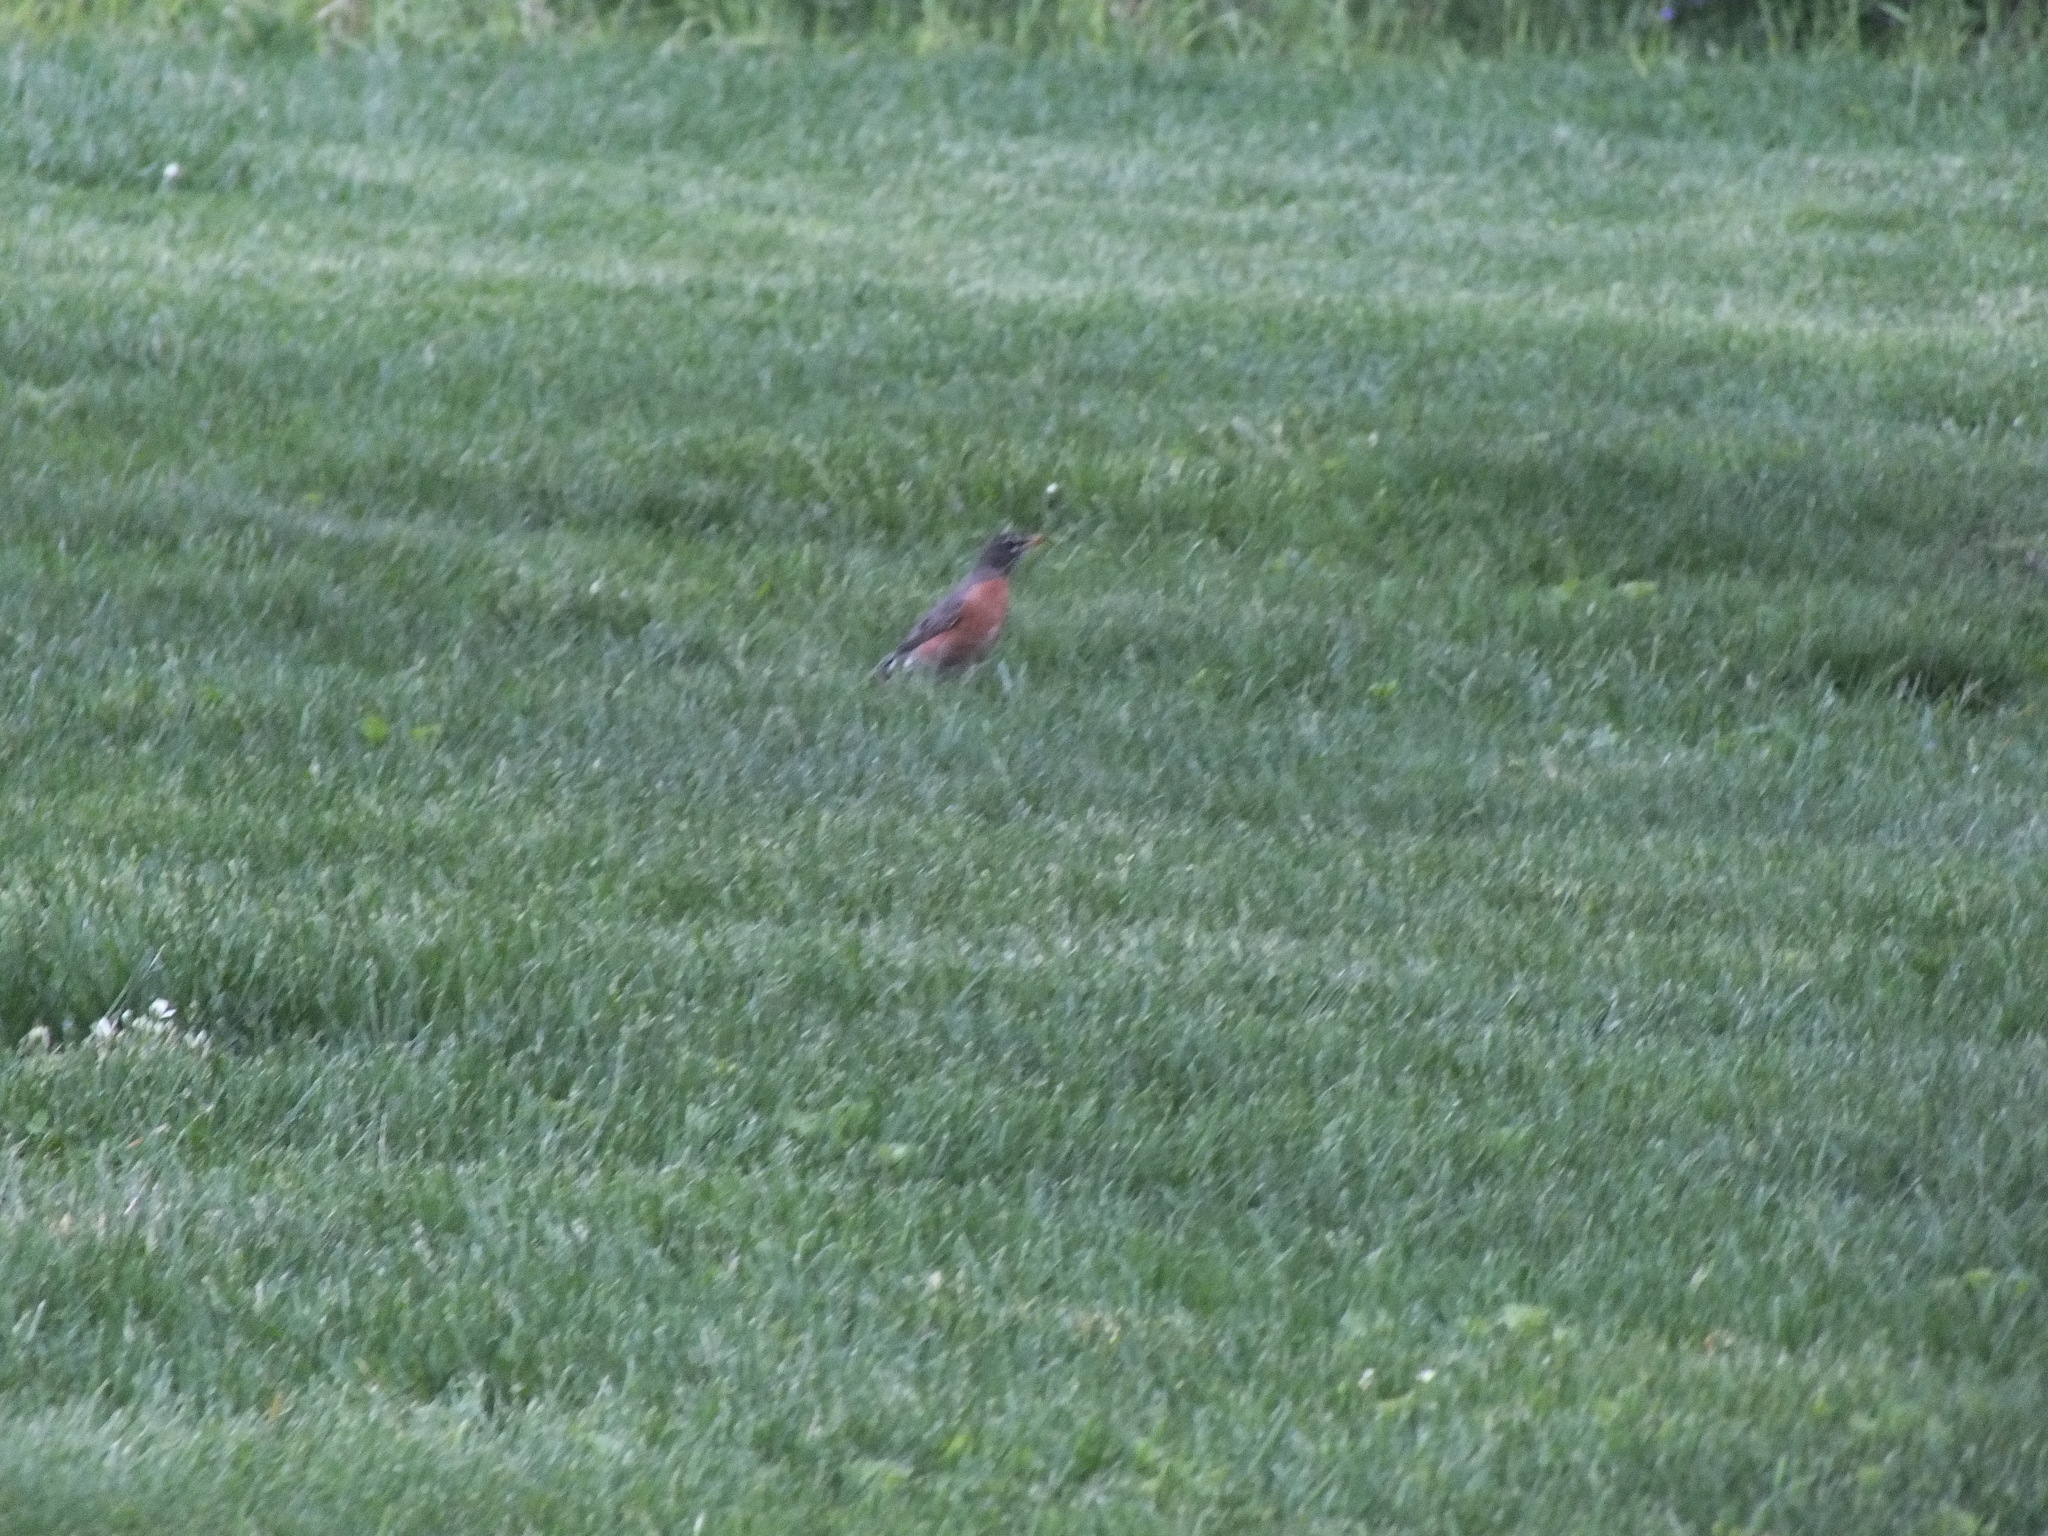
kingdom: Animalia
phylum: Chordata
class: Aves
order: Passeriformes
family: Turdidae
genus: Turdus
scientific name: Turdus migratorius
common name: American robin
